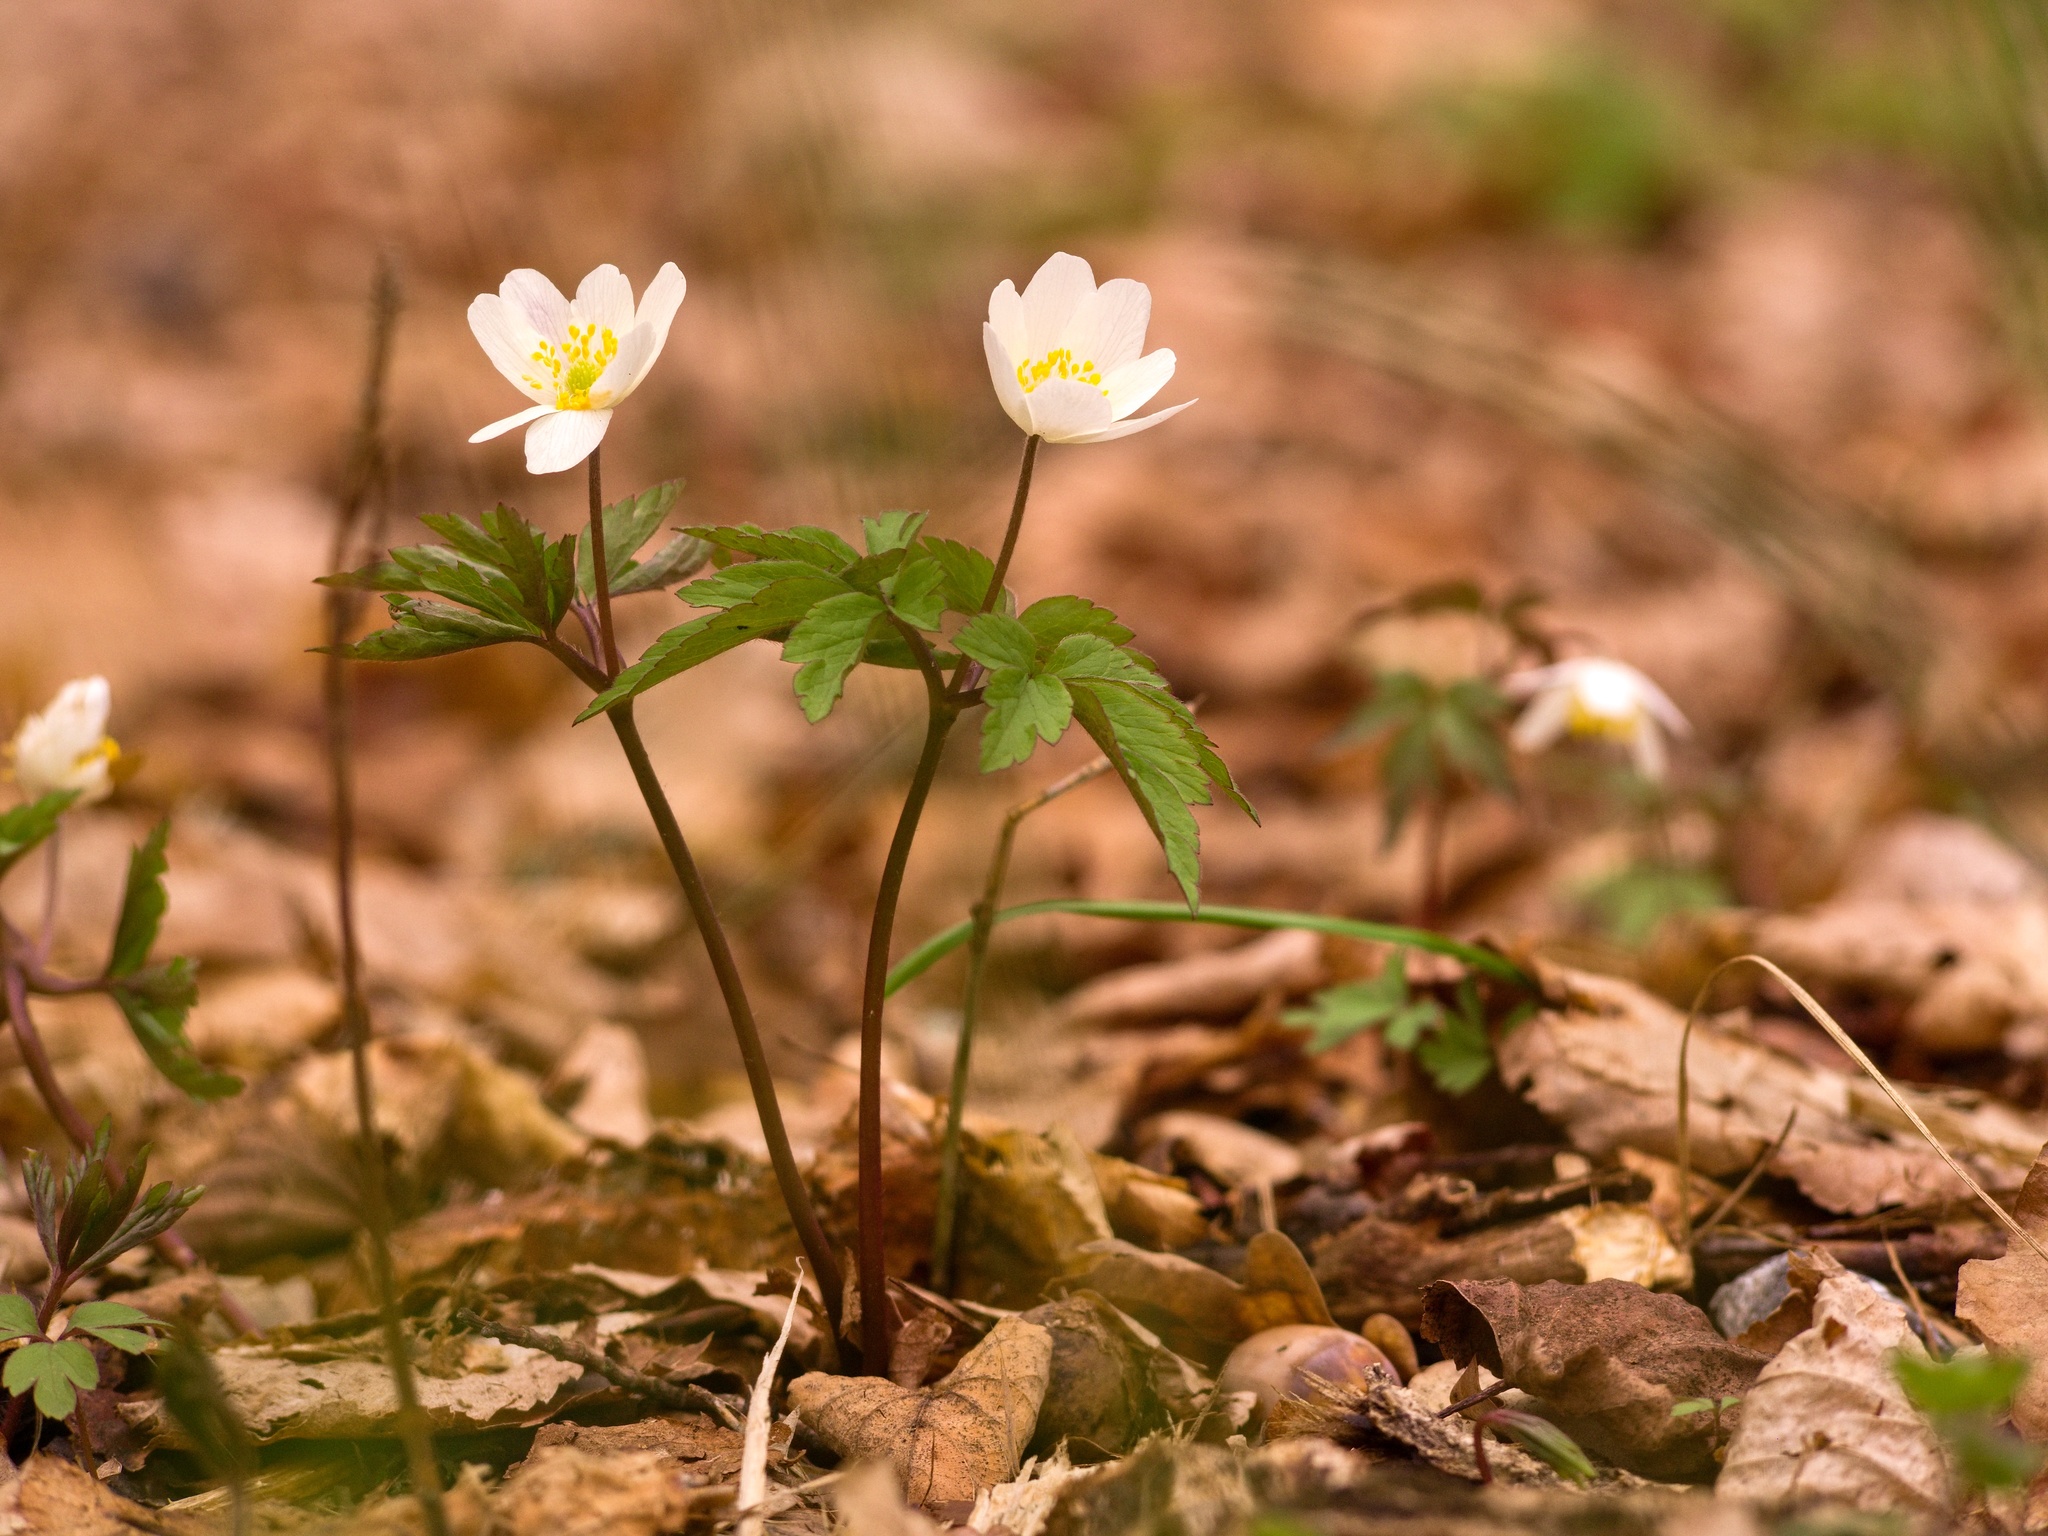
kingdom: Plantae
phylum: Tracheophyta
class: Magnoliopsida
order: Ranunculales
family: Ranunculaceae
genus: Anemone
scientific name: Anemone nemorosa
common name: Wood anemone
